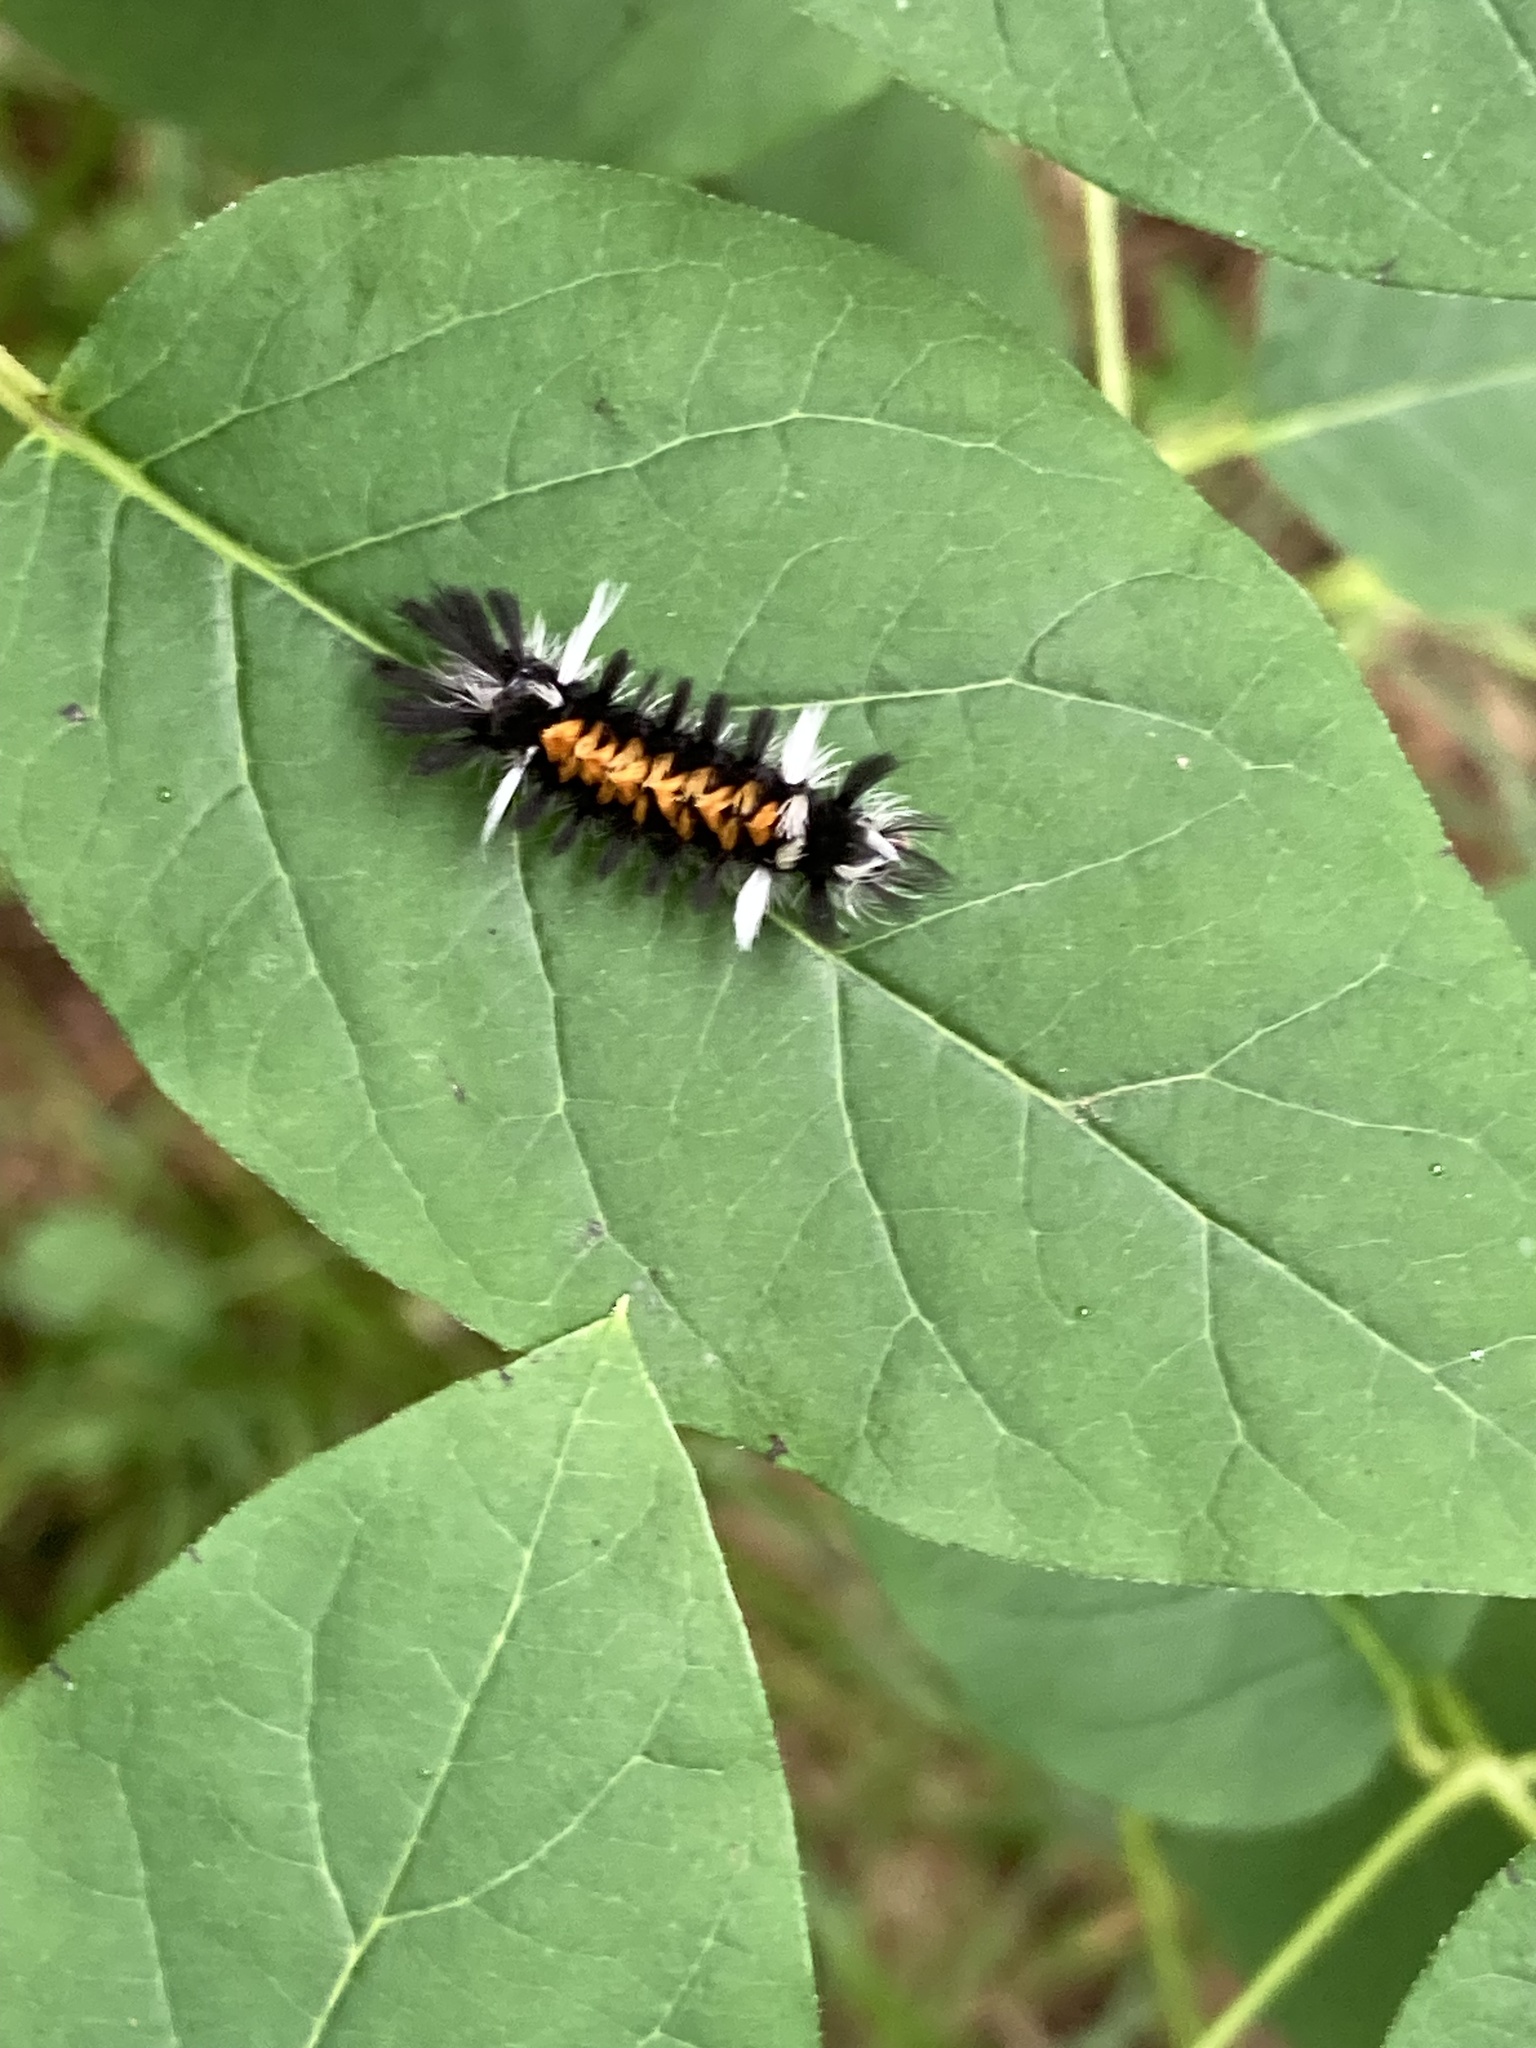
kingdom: Animalia
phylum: Arthropoda
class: Insecta
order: Lepidoptera
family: Erebidae
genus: Euchaetes
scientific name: Euchaetes egle
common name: Milkweed tussock moth
